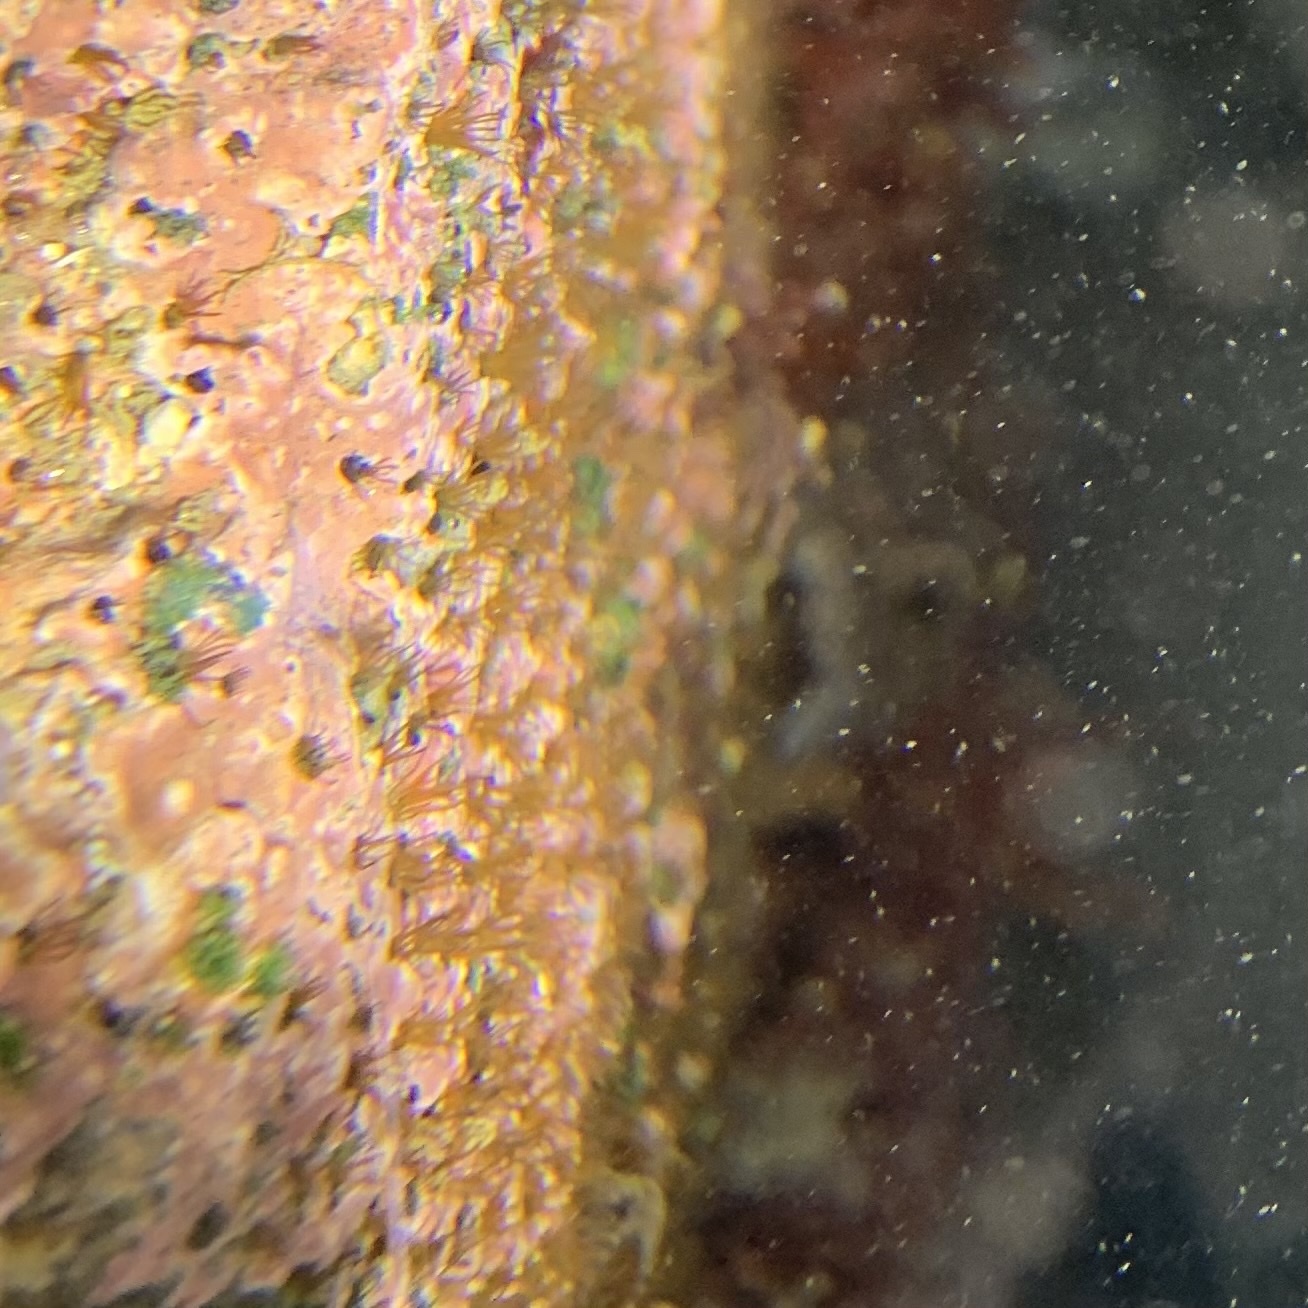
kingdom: Animalia
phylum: Annelida
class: Polychaeta
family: Cirratulidae
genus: Dodecaceria
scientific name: Dodecaceria pacifica
